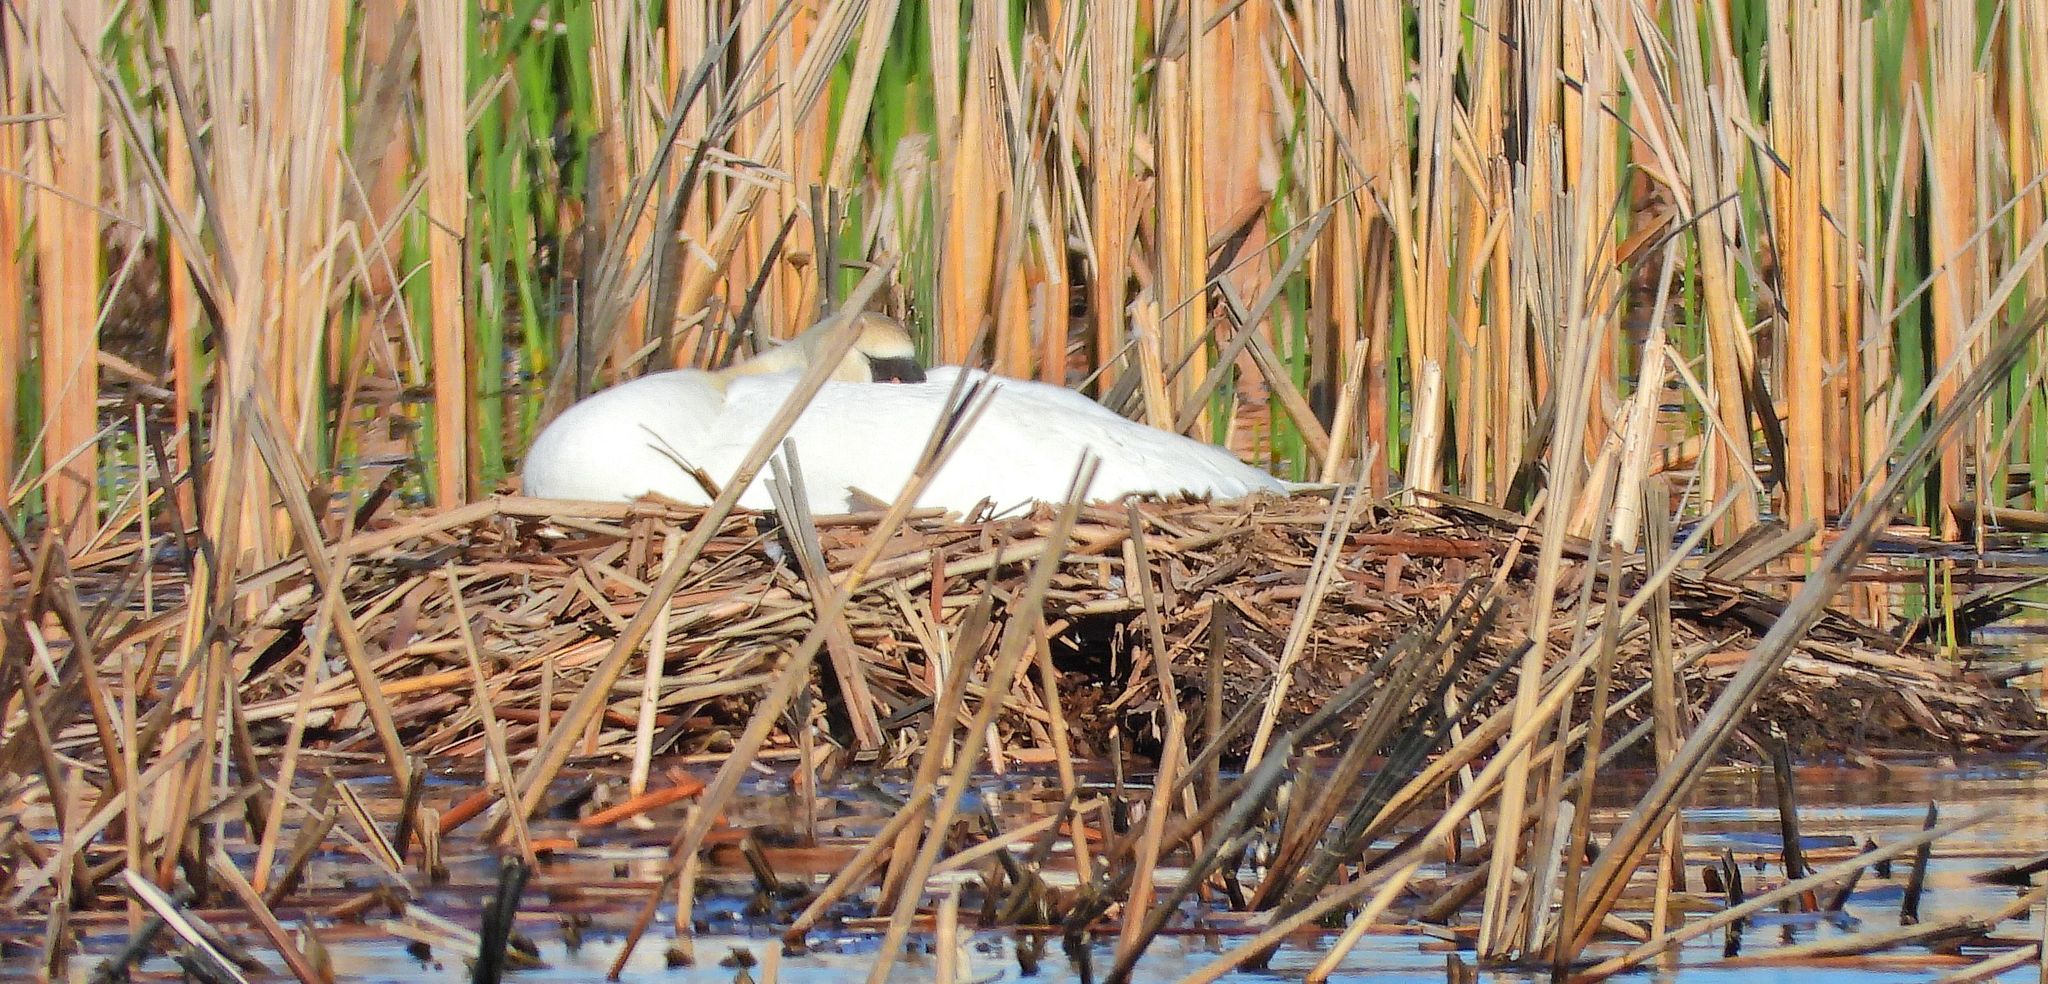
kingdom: Animalia
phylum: Chordata
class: Aves
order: Anseriformes
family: Anatidae
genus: Cygnus
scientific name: Cygnus olor
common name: Mute swan
